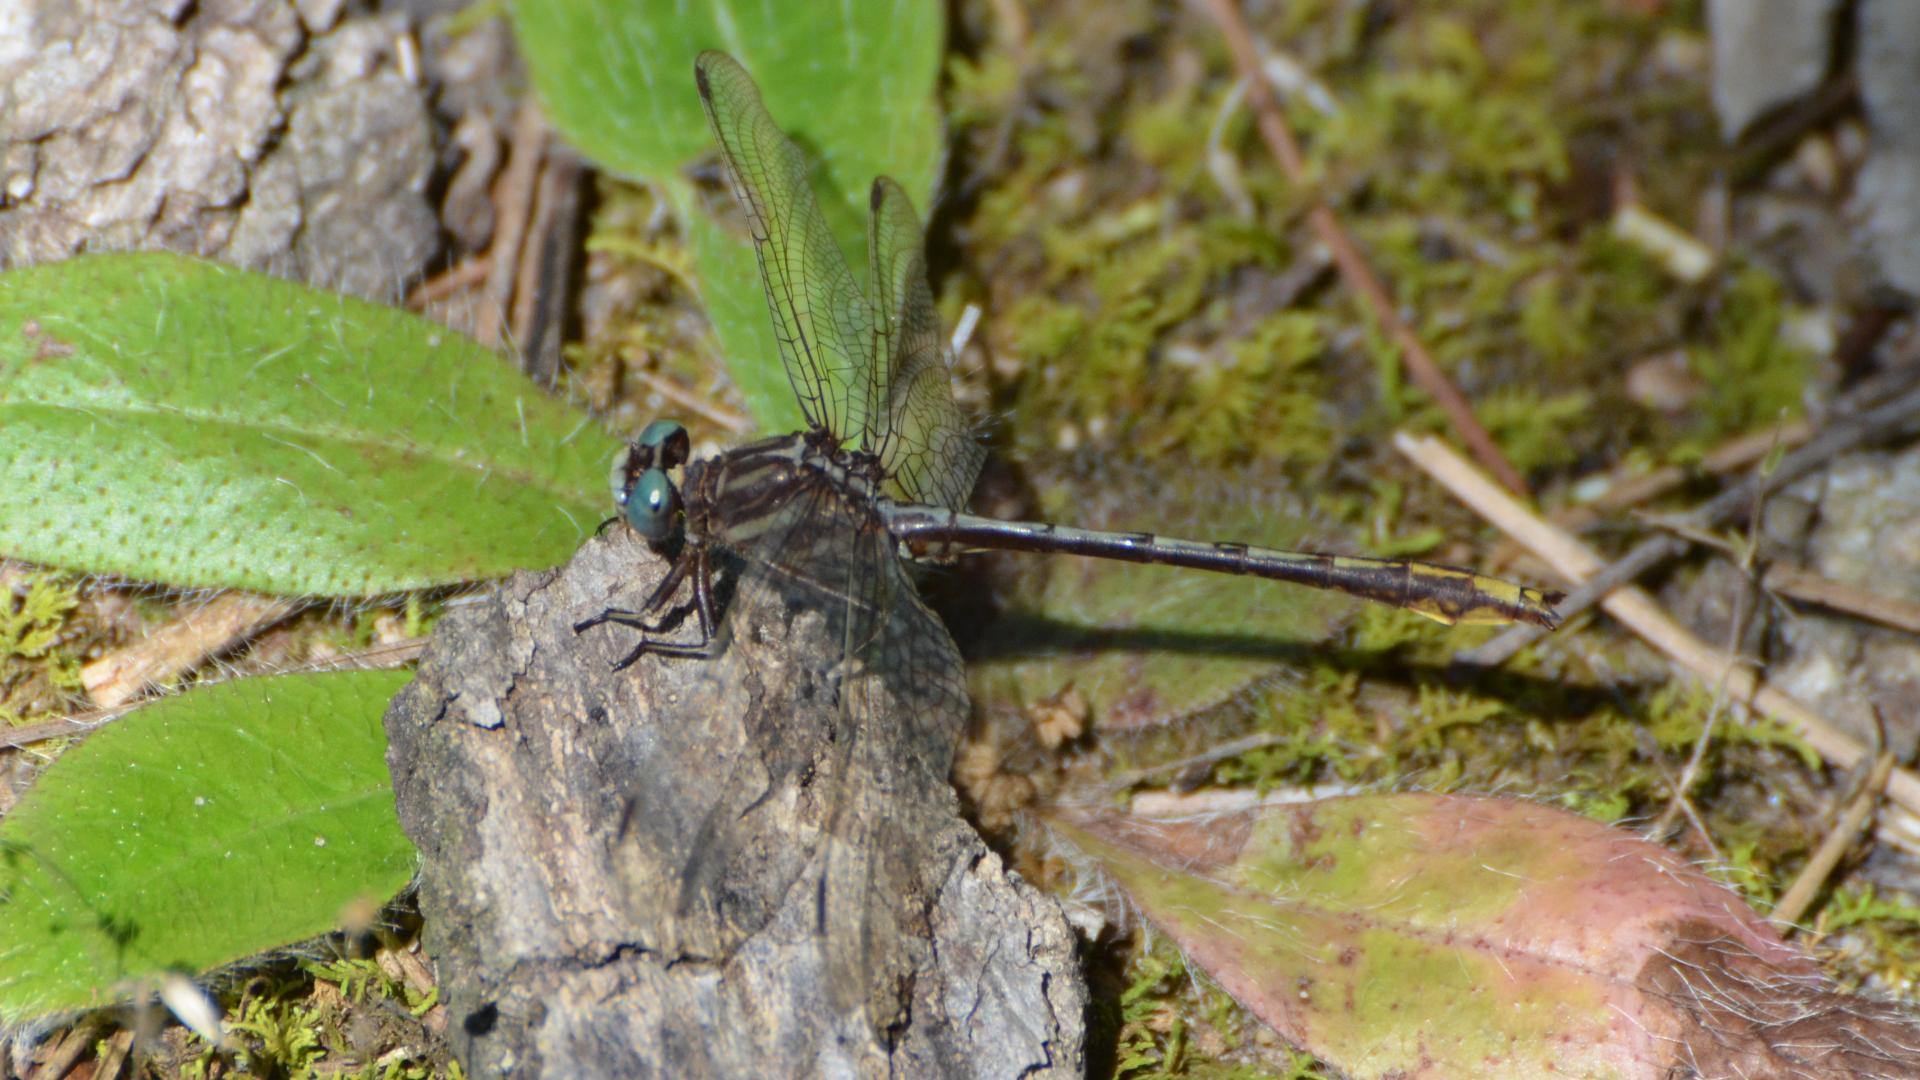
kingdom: Animalia
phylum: Arthropoda
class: Insecta
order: Odonata
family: Gomphidae
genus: Phanogomphus
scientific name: Phanogomphus exilis
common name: Lancet clubtail
